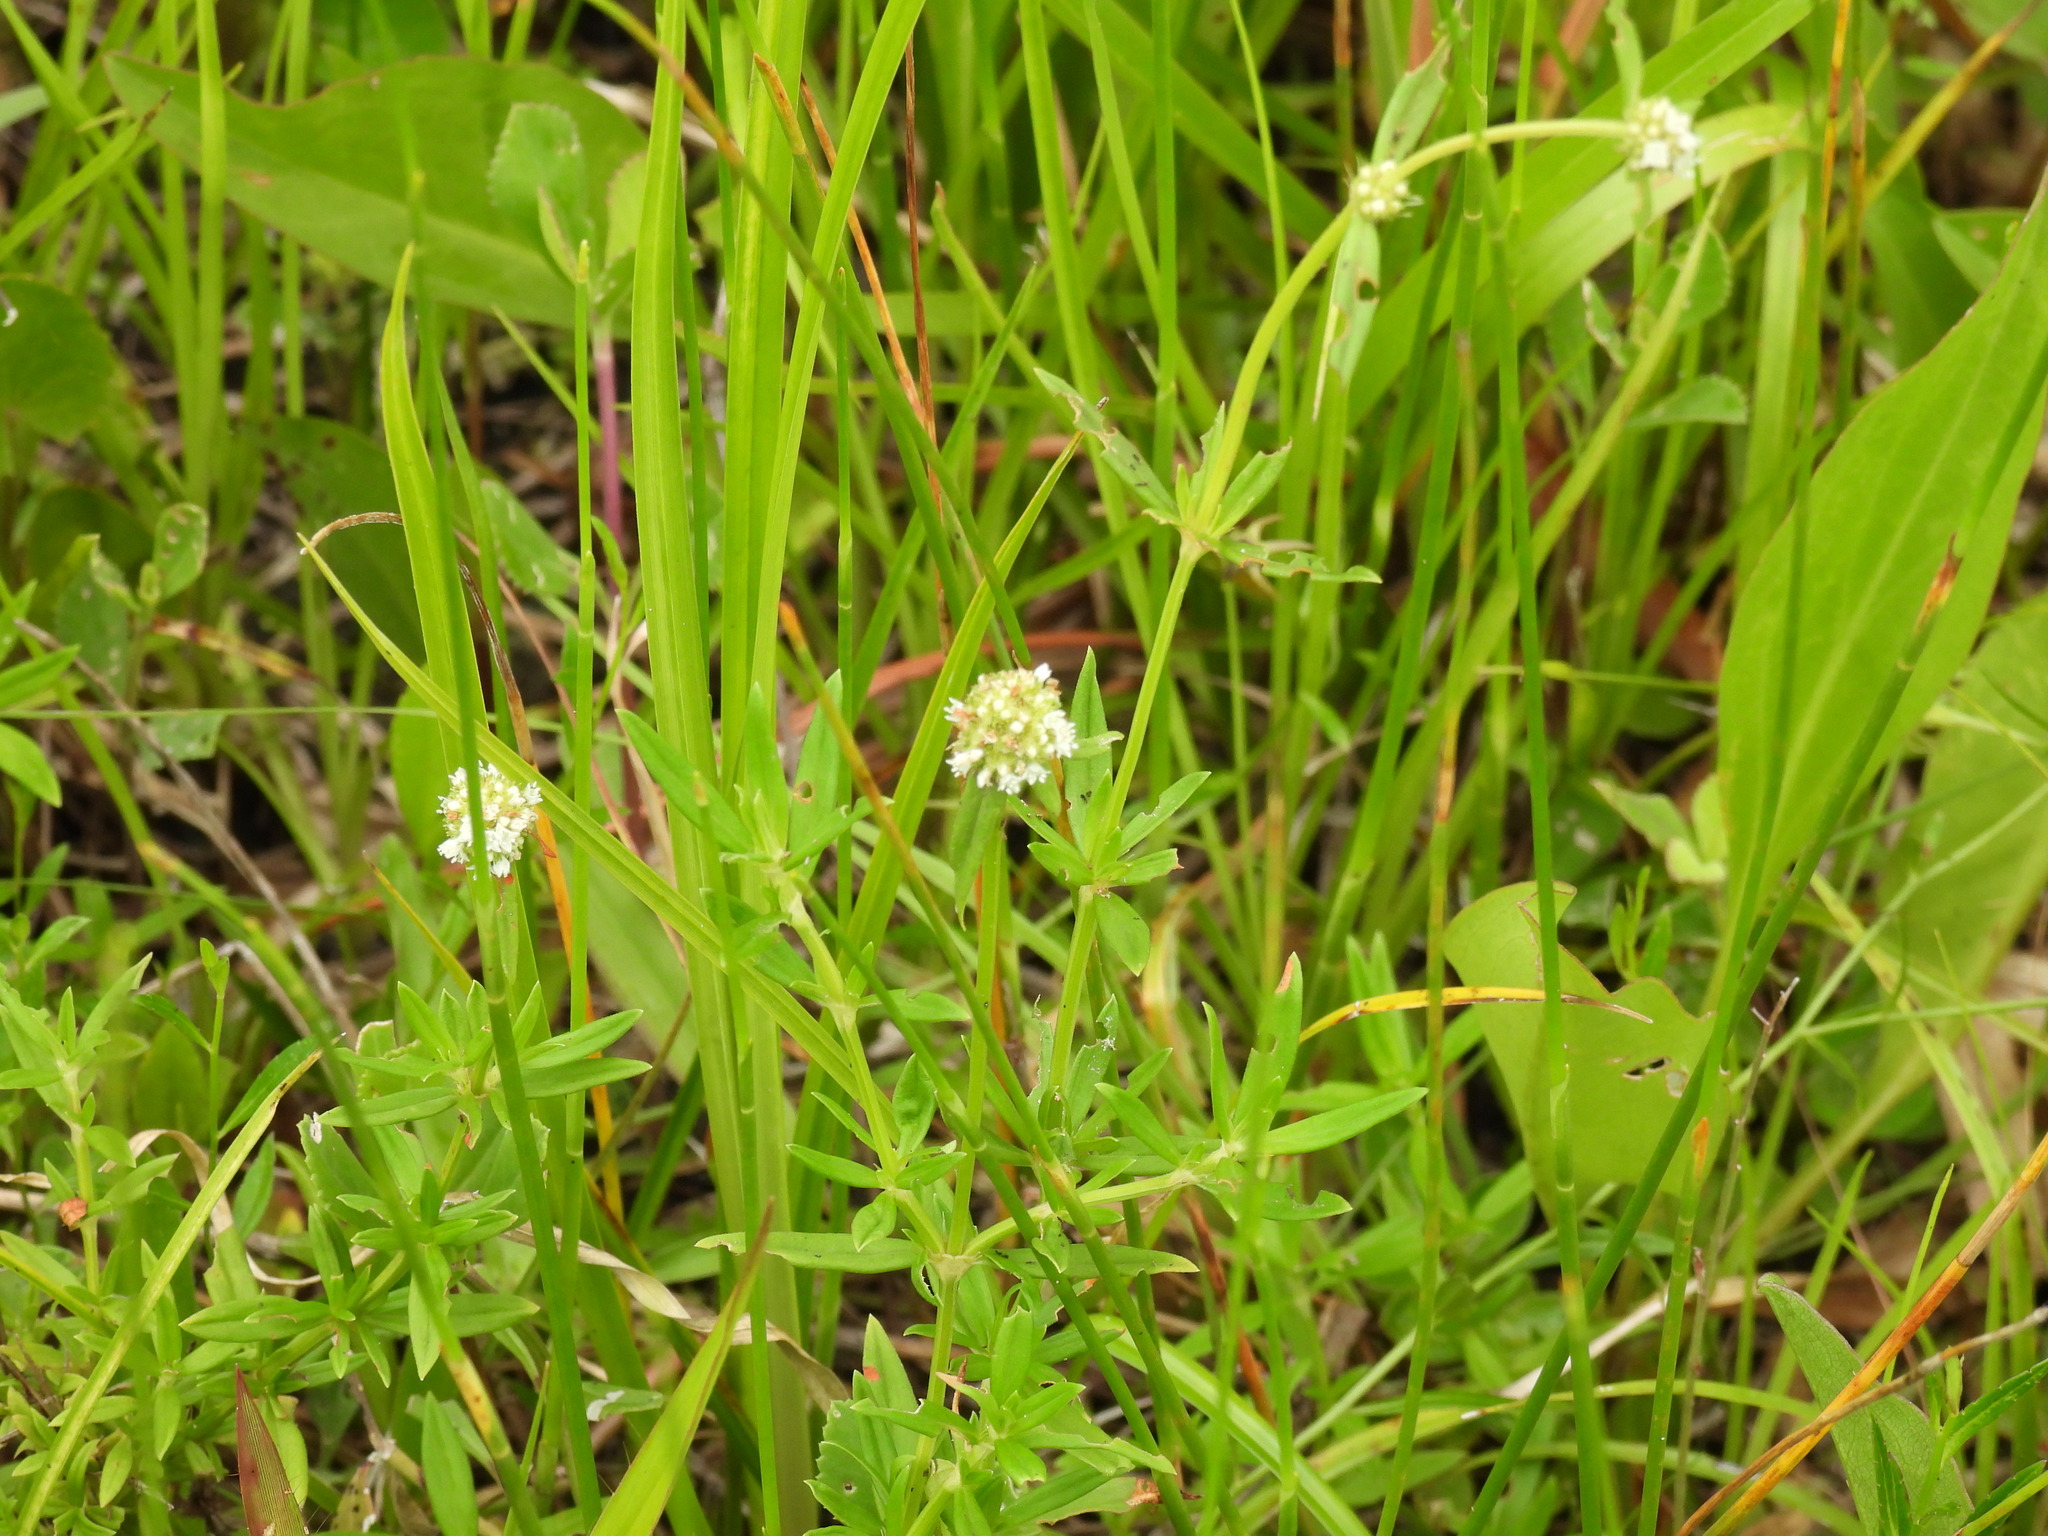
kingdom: Plantae
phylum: Tracheophyta
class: Magnoliopsida
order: Gentianales
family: Rubiaceae
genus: Spermacoce
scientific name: Spermacoce verticillata
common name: Shrubby false buttonweed
